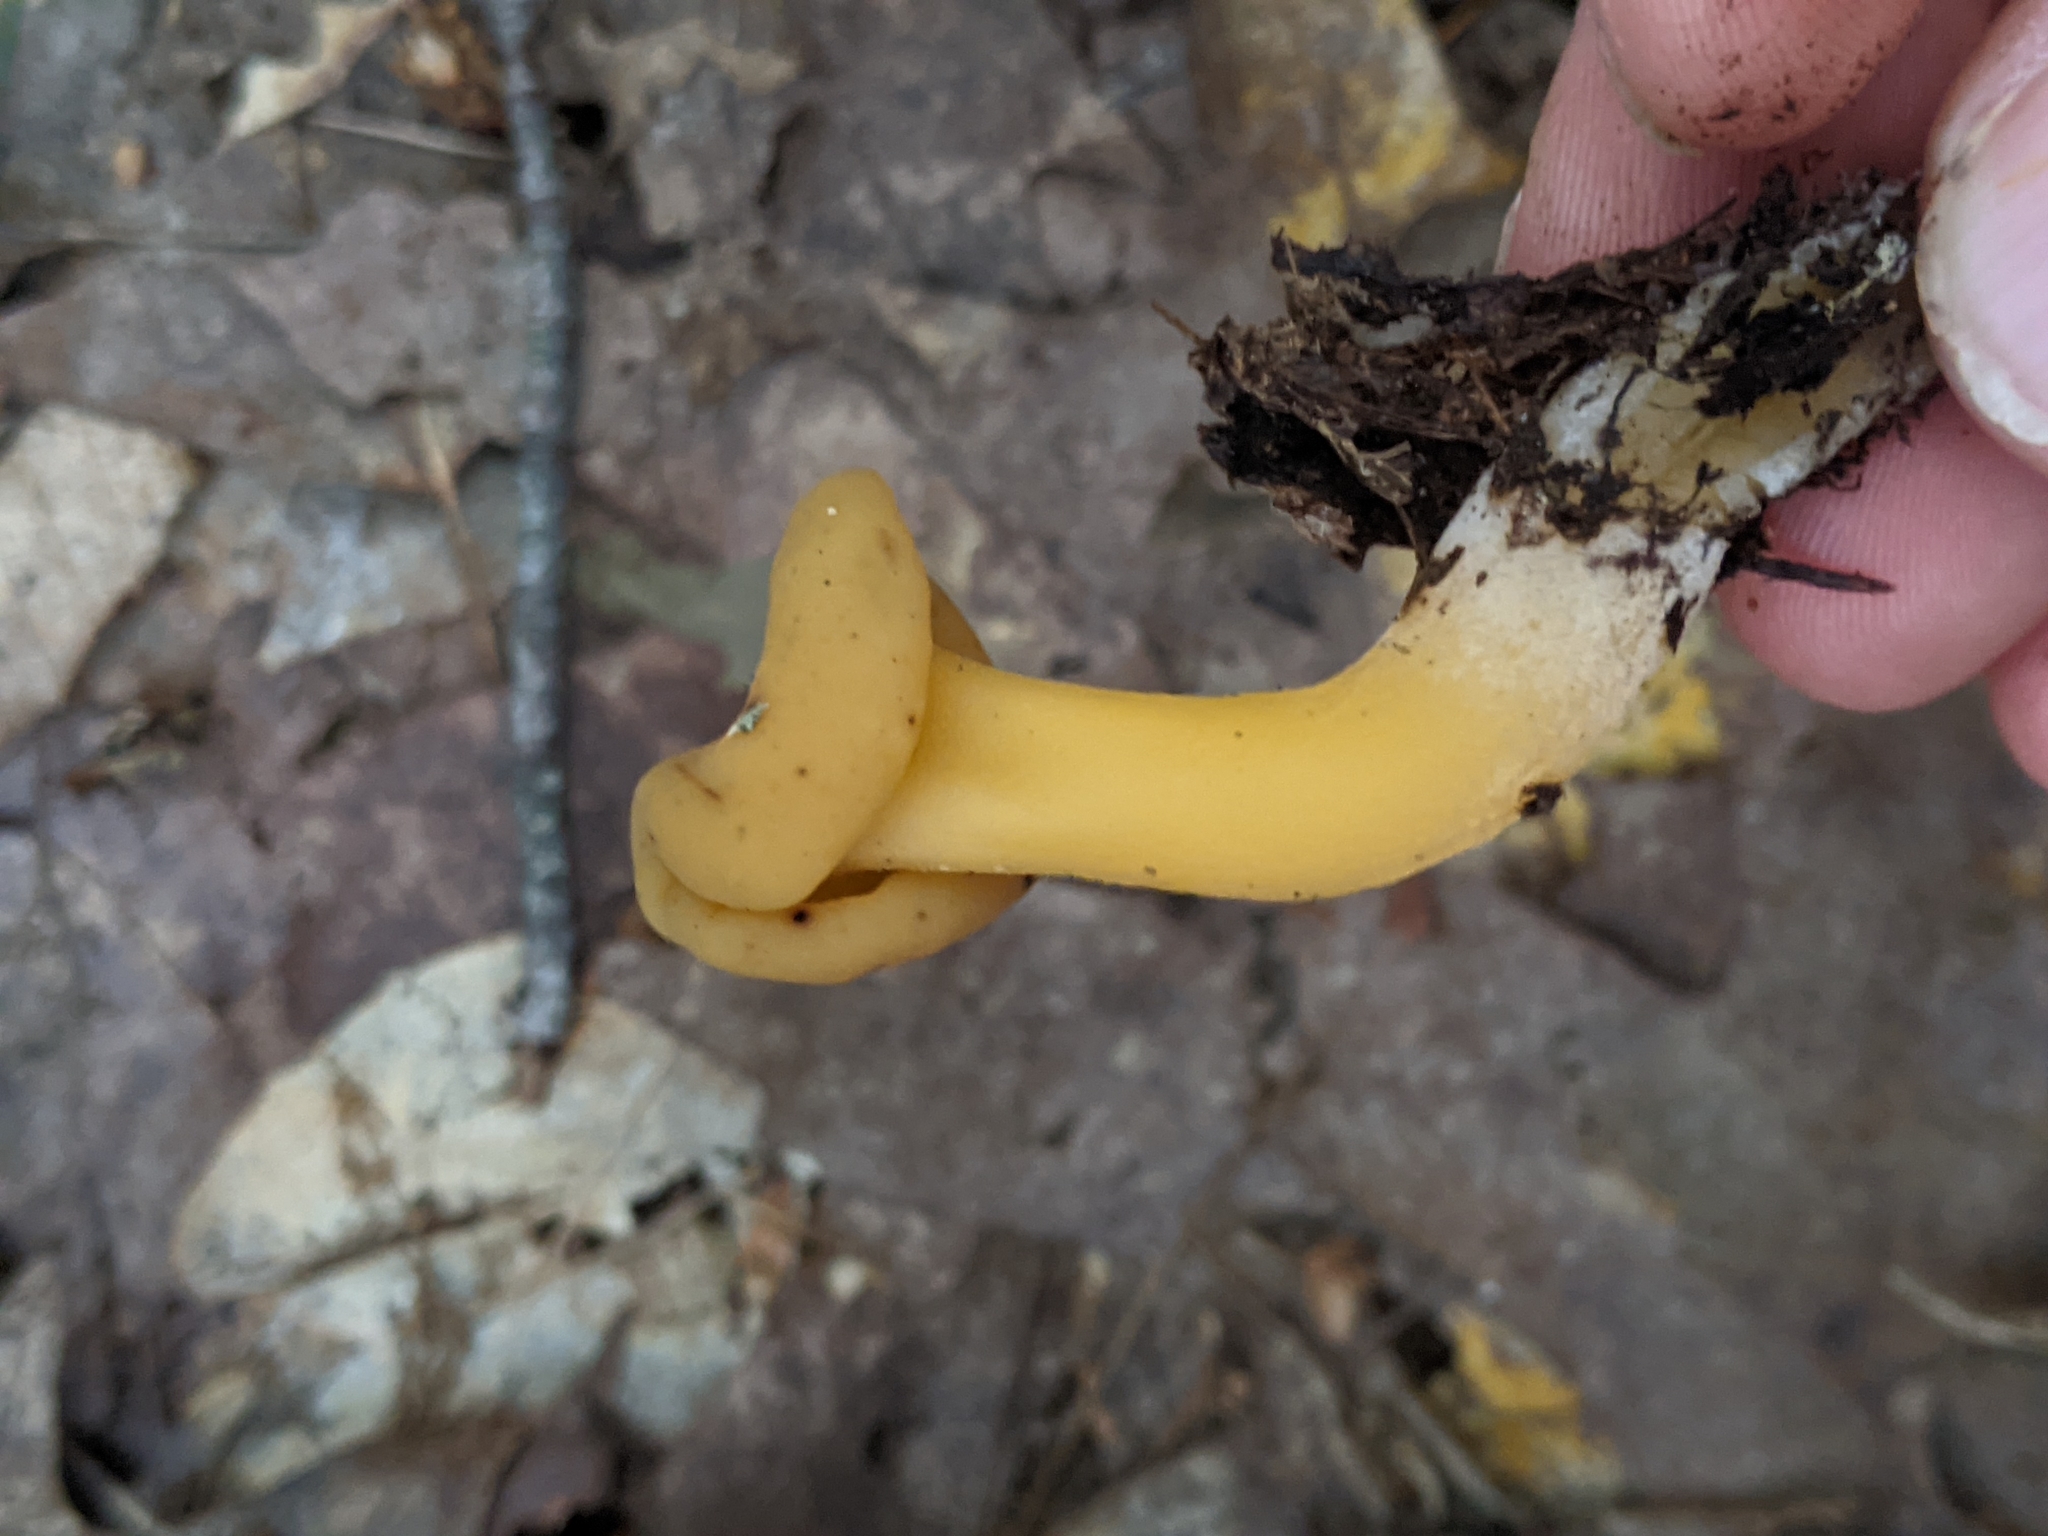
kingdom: Fungi
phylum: Ascomycota
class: Leotiomycetes
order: Leotiales
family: Leotiaceae
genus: Leotia
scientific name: Leotia lubrica
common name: Jellybaby
